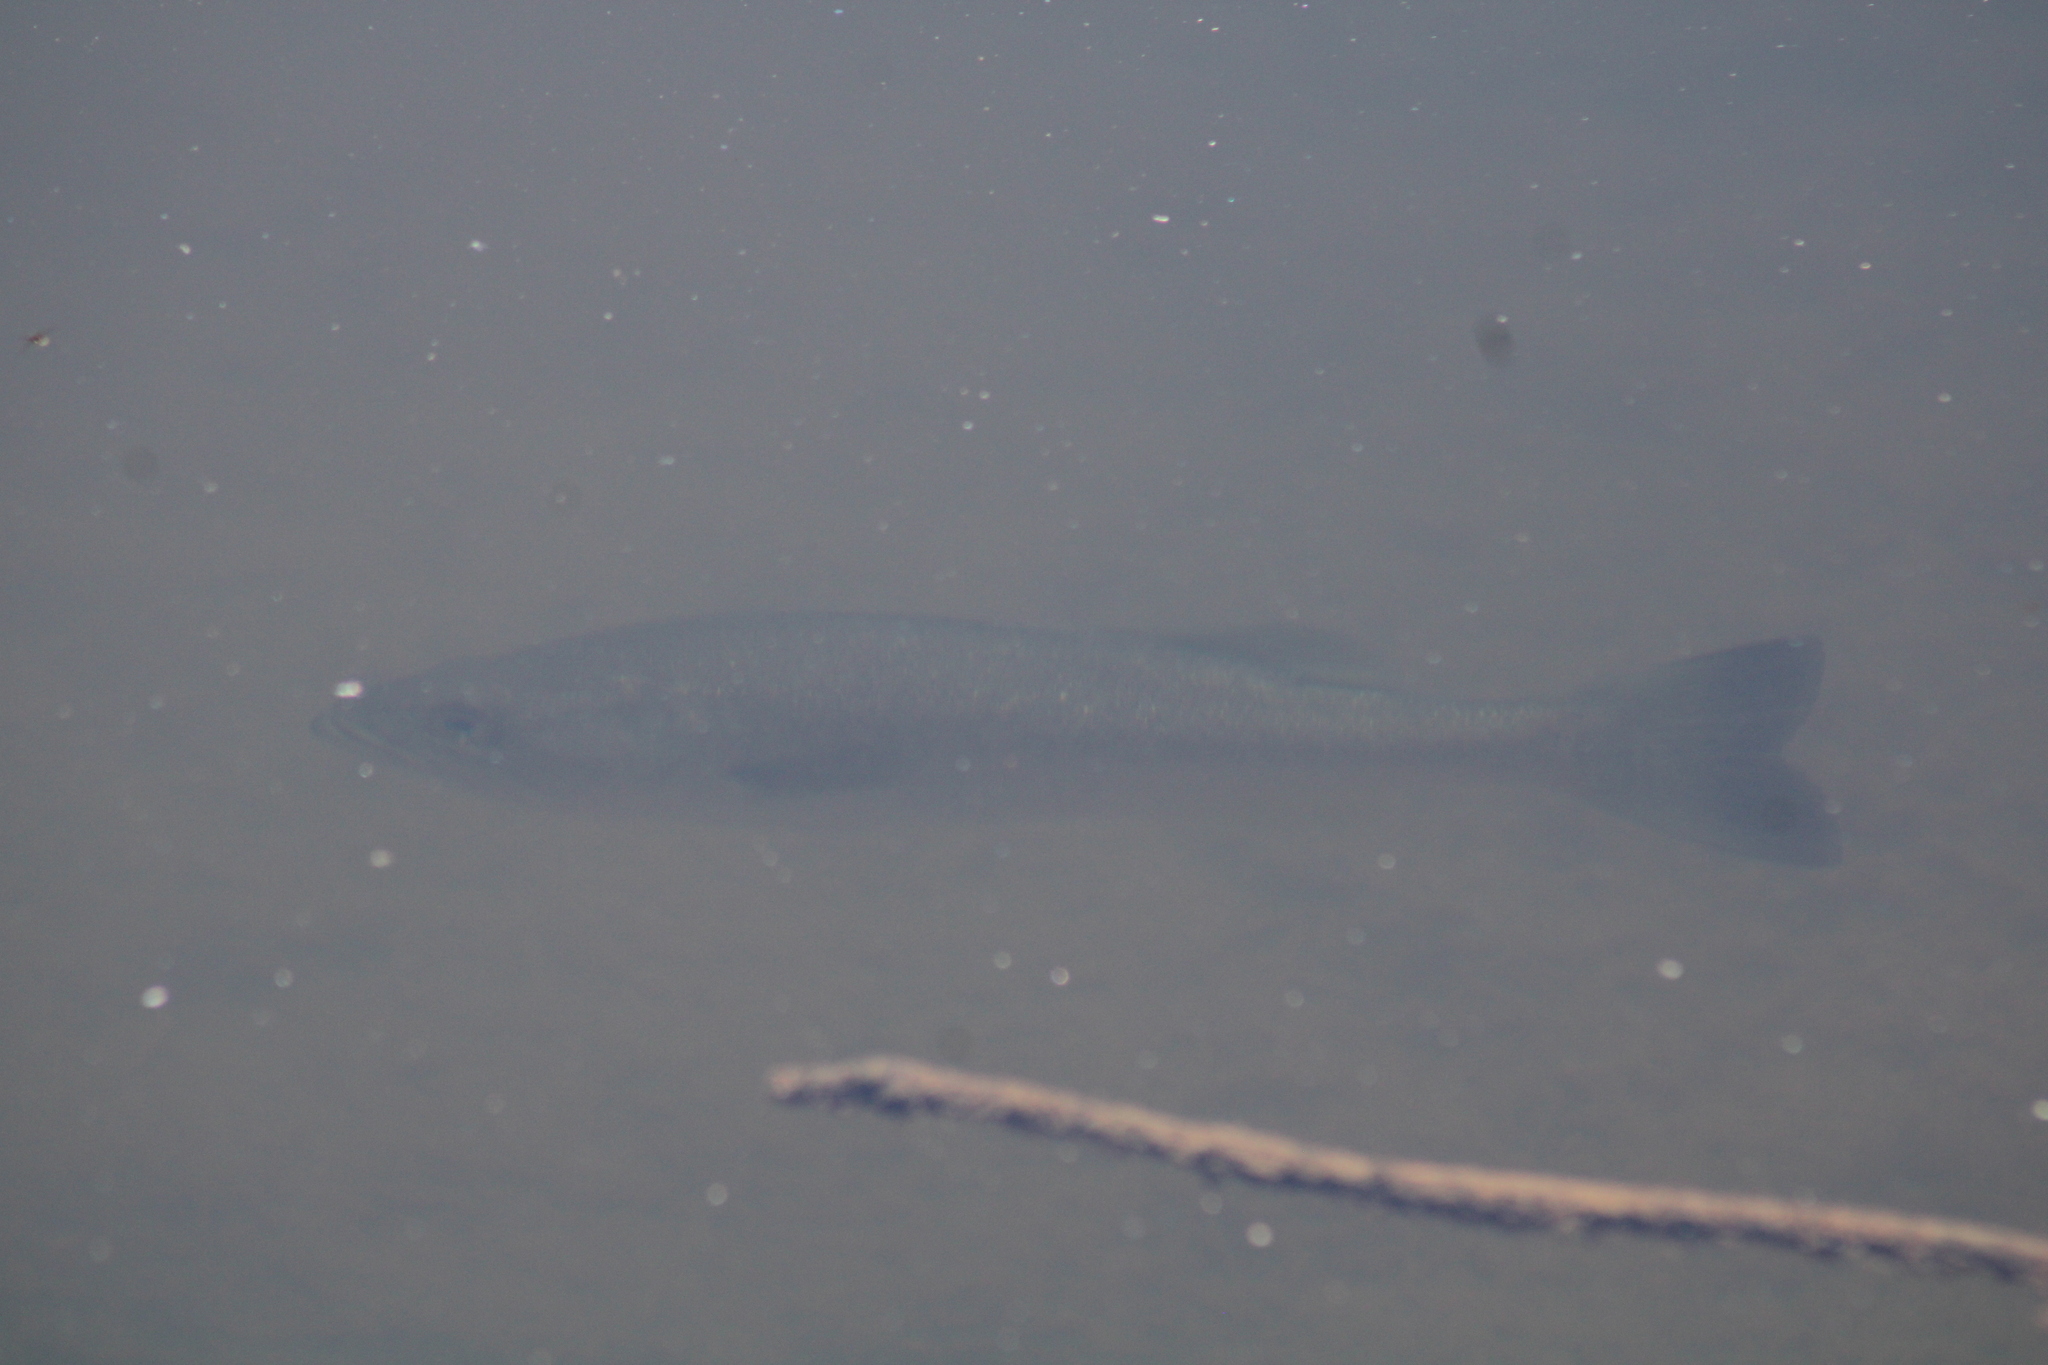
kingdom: Animalia
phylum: Chordata
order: Perciformes
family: Centrarchidae
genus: Micropterus
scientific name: Micropterus salmoides
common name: Largemouth bass
